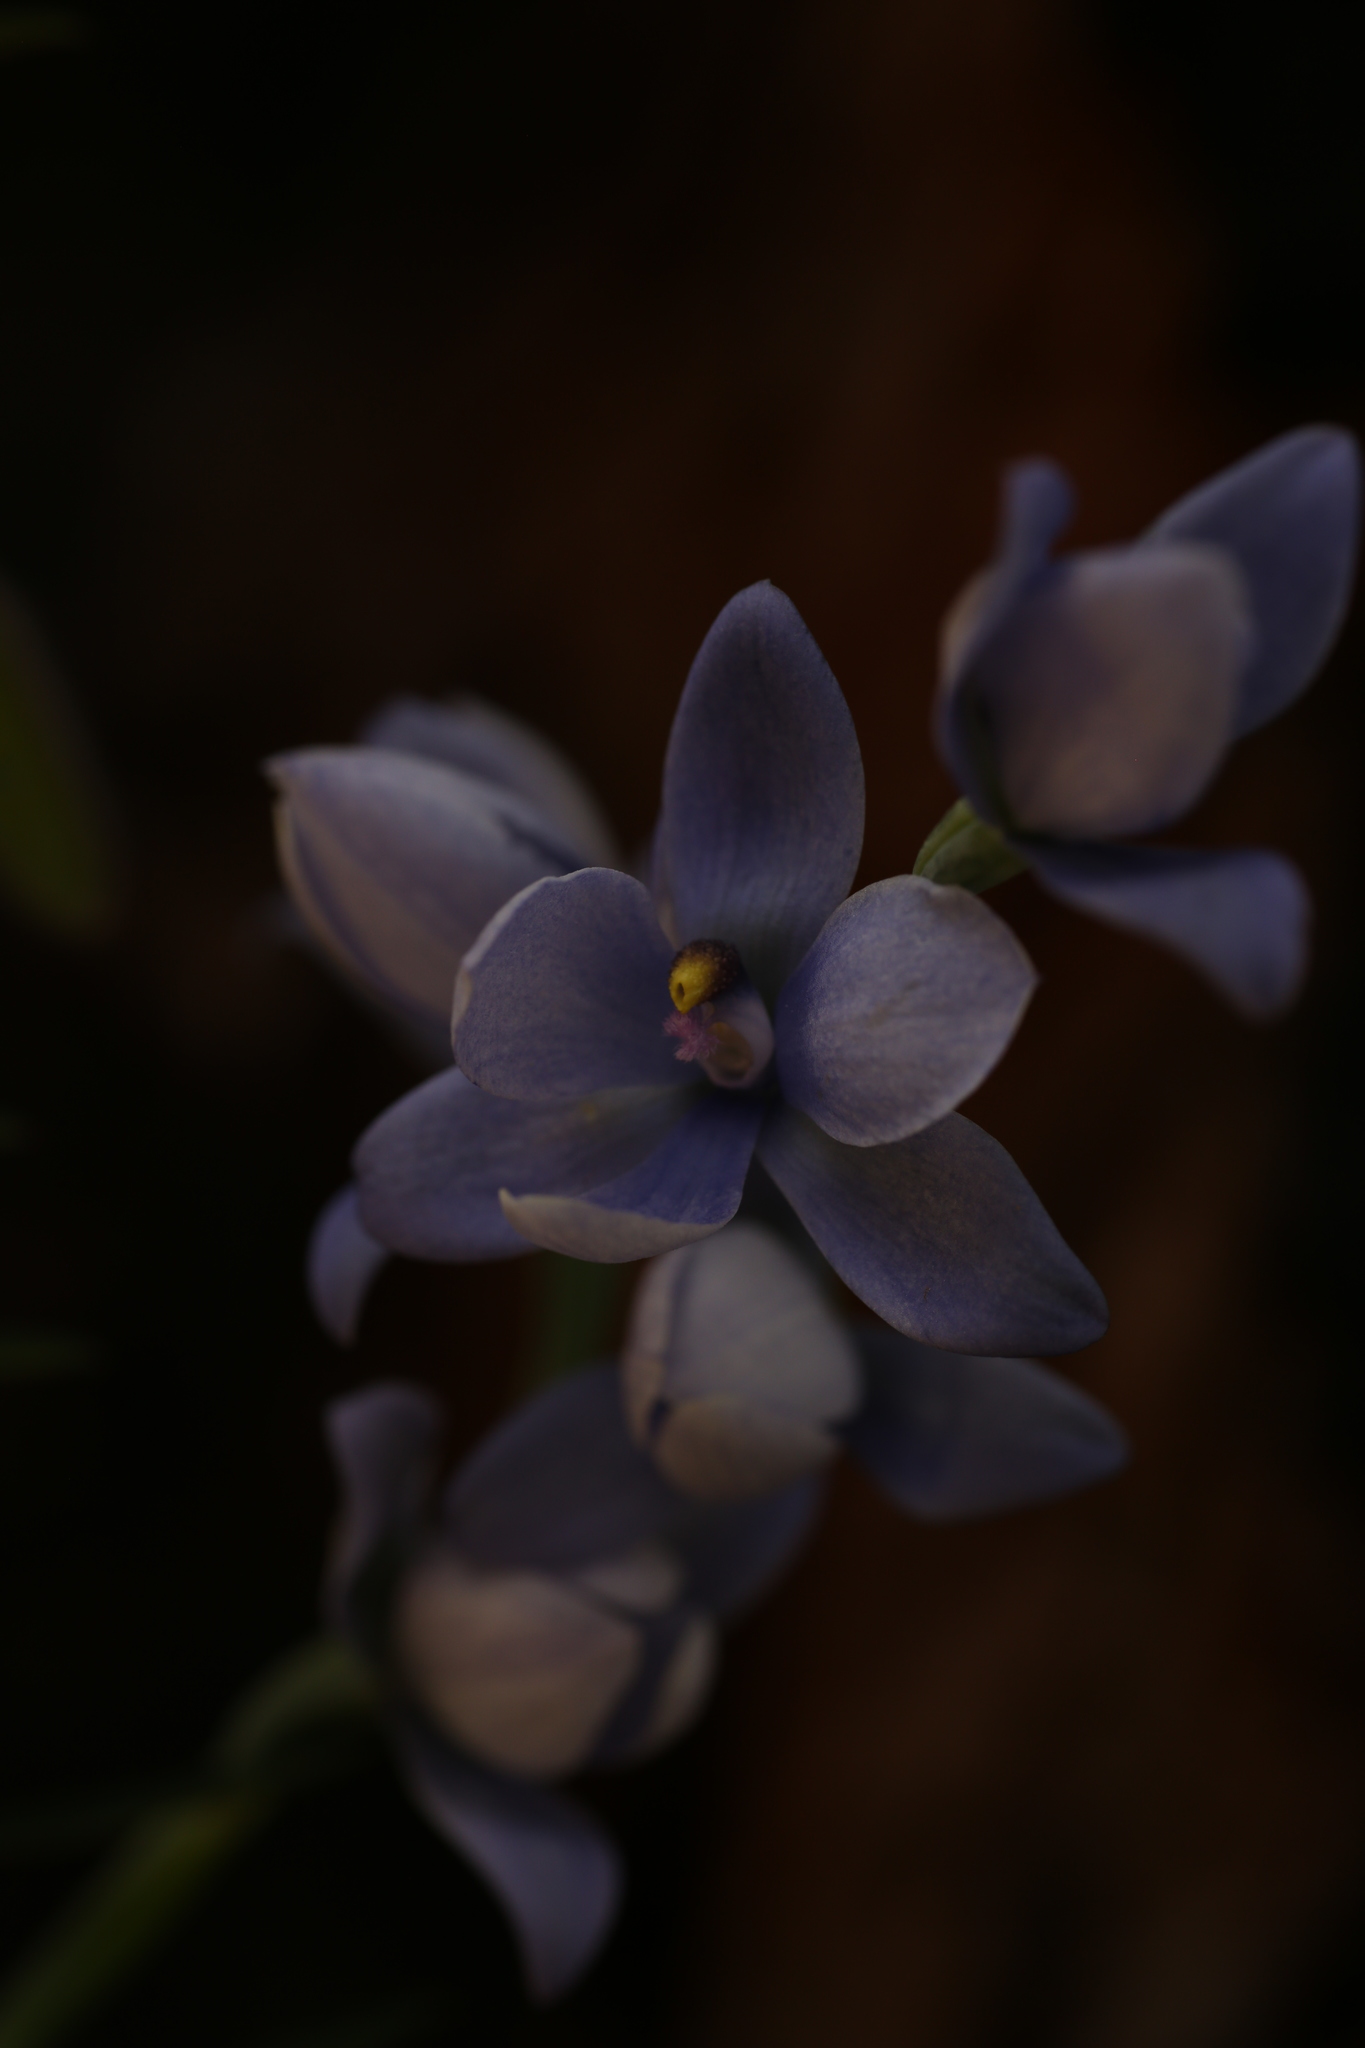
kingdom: Plantae
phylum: Tracheophyta
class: Liliopsida
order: Asparagales
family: Orchidaceae
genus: Thelymitra
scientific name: Thelymitra crinita
